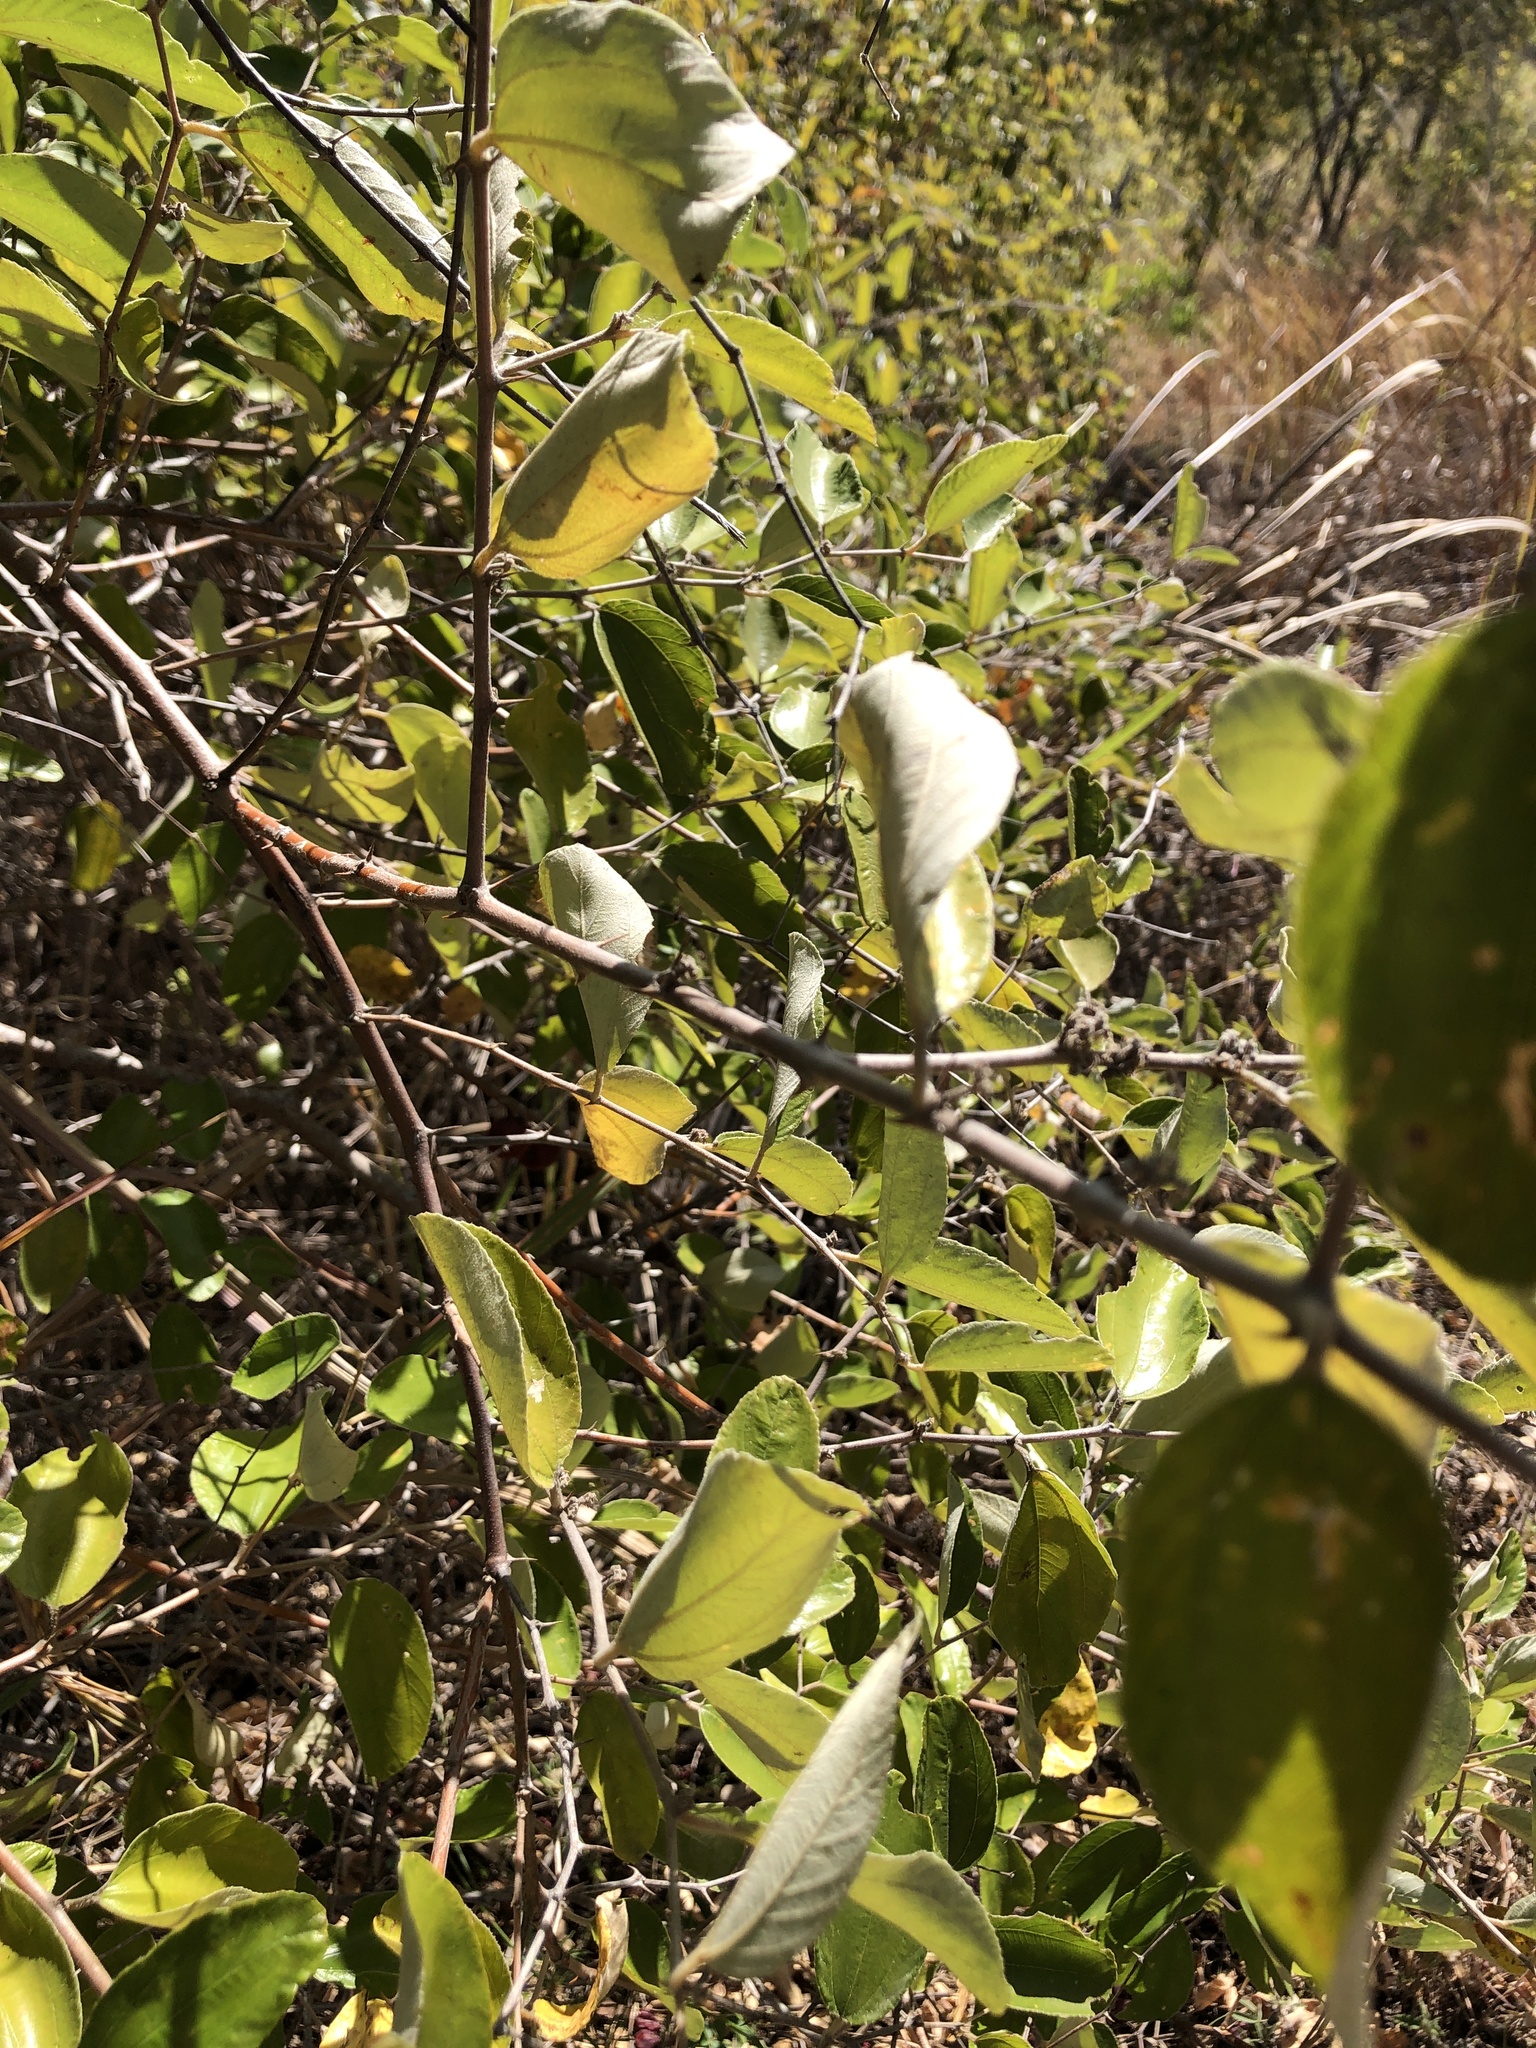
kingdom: Plantae
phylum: Tracheophyta
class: Magnoliopsida
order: Rosales
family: Rhamnaceae
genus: Ziziphus
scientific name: Ziziphus mauritiana
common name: Indian jujube
